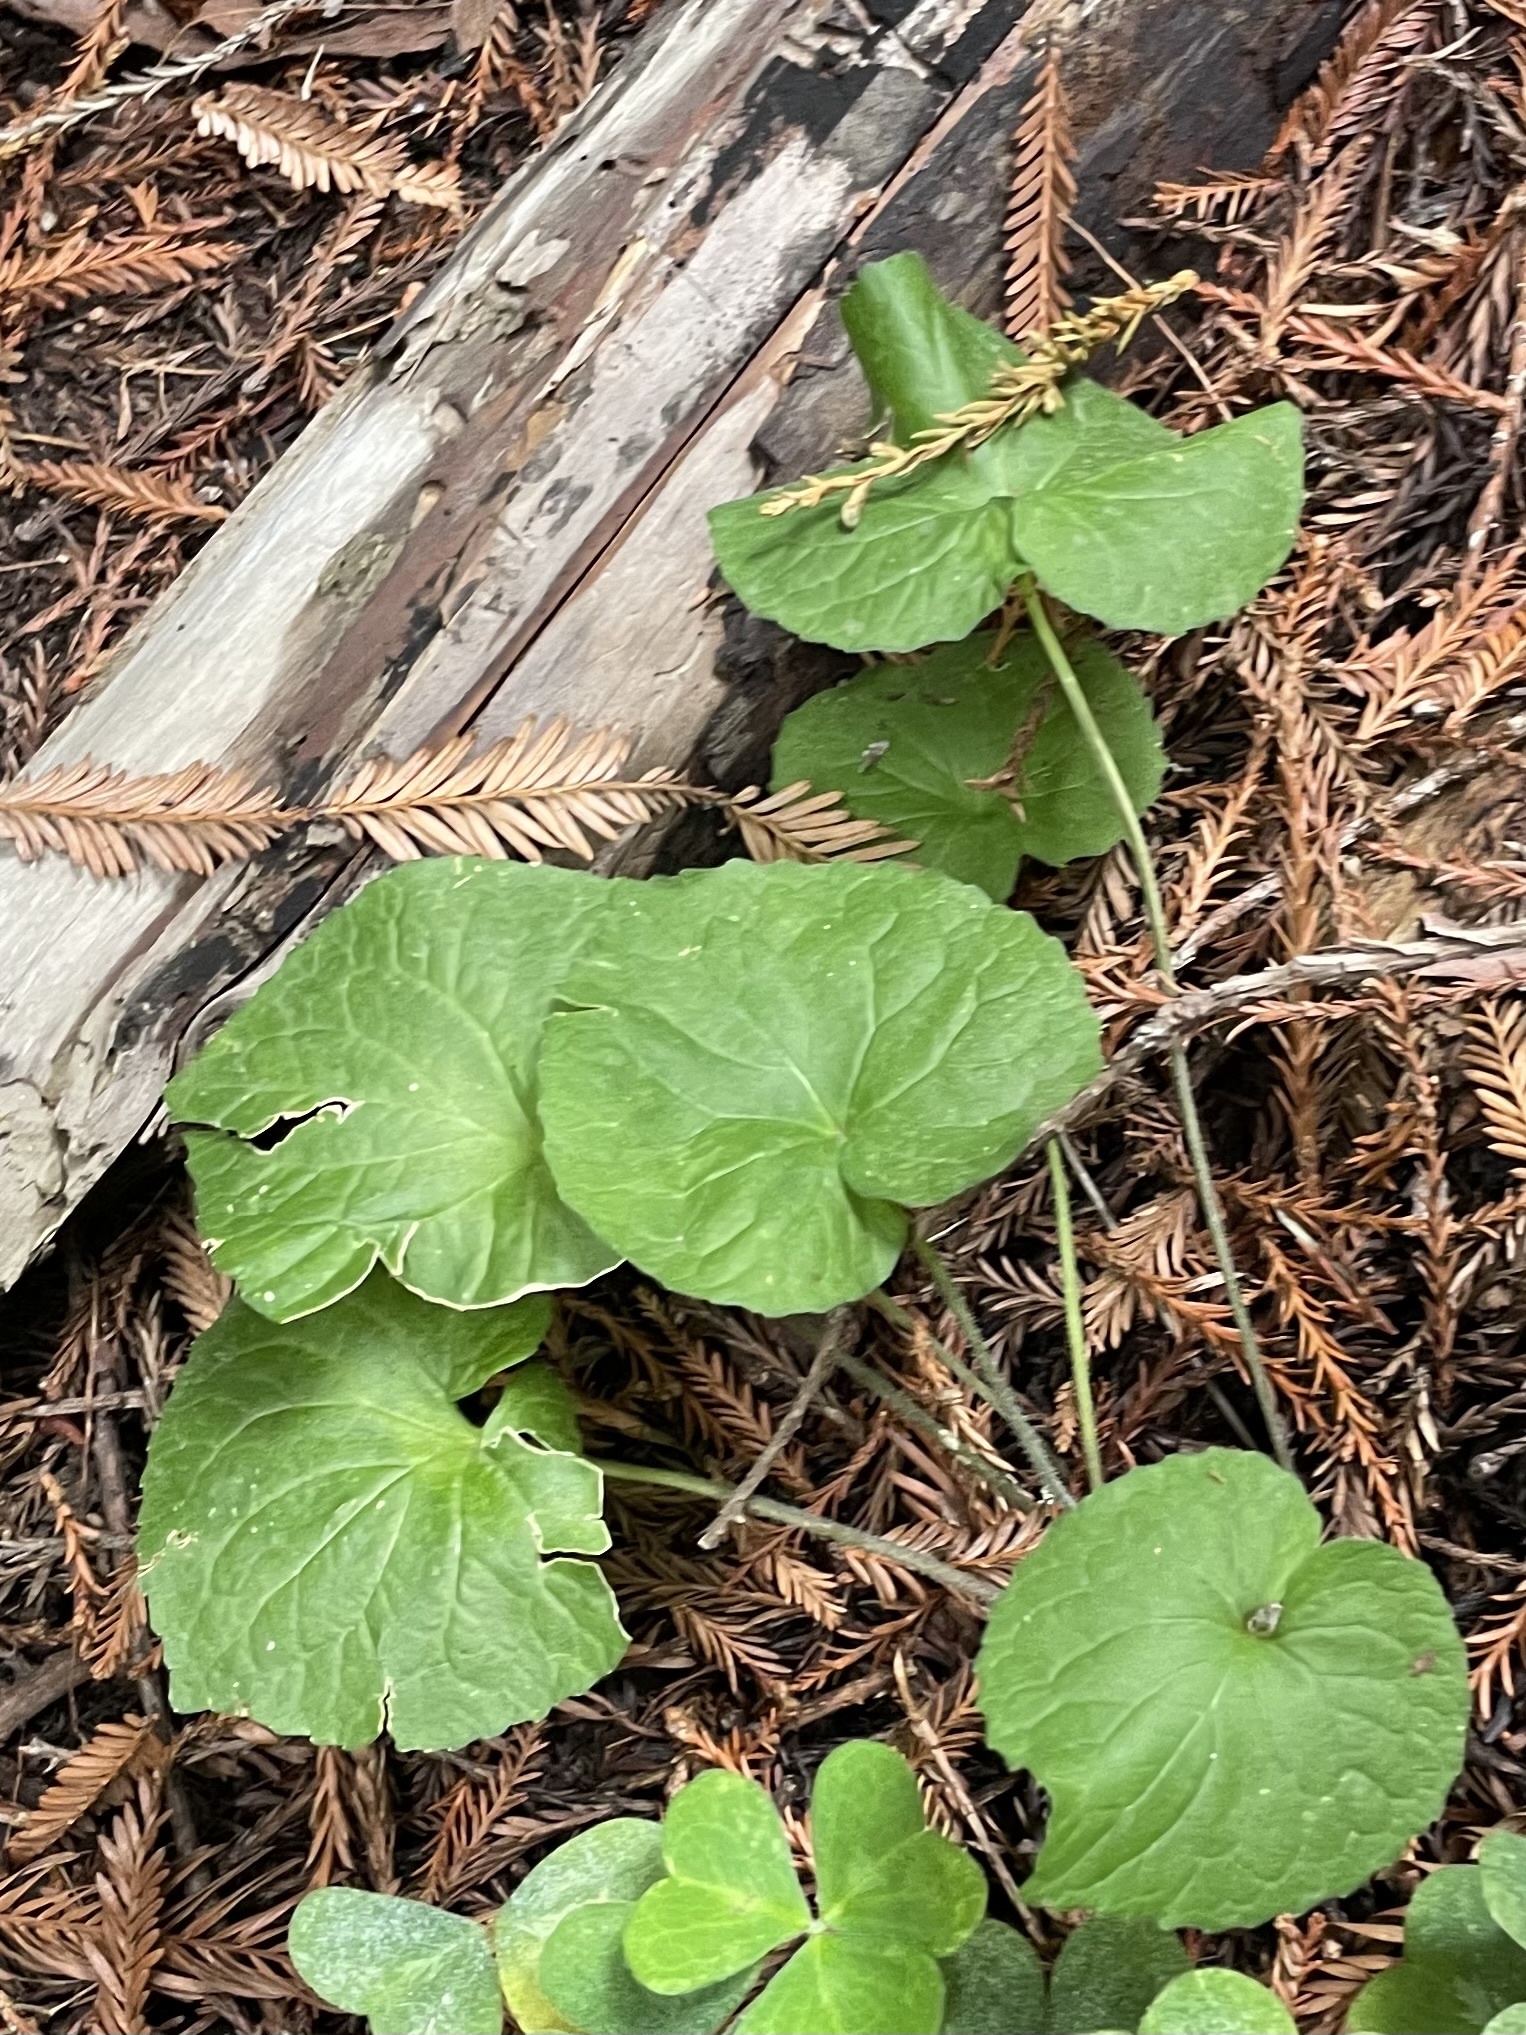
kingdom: Plantae
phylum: Tracheophyta
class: Magnoliopsida
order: Malpighiales
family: Violaceae
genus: Viola
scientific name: Viola glabella
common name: Stream violet
